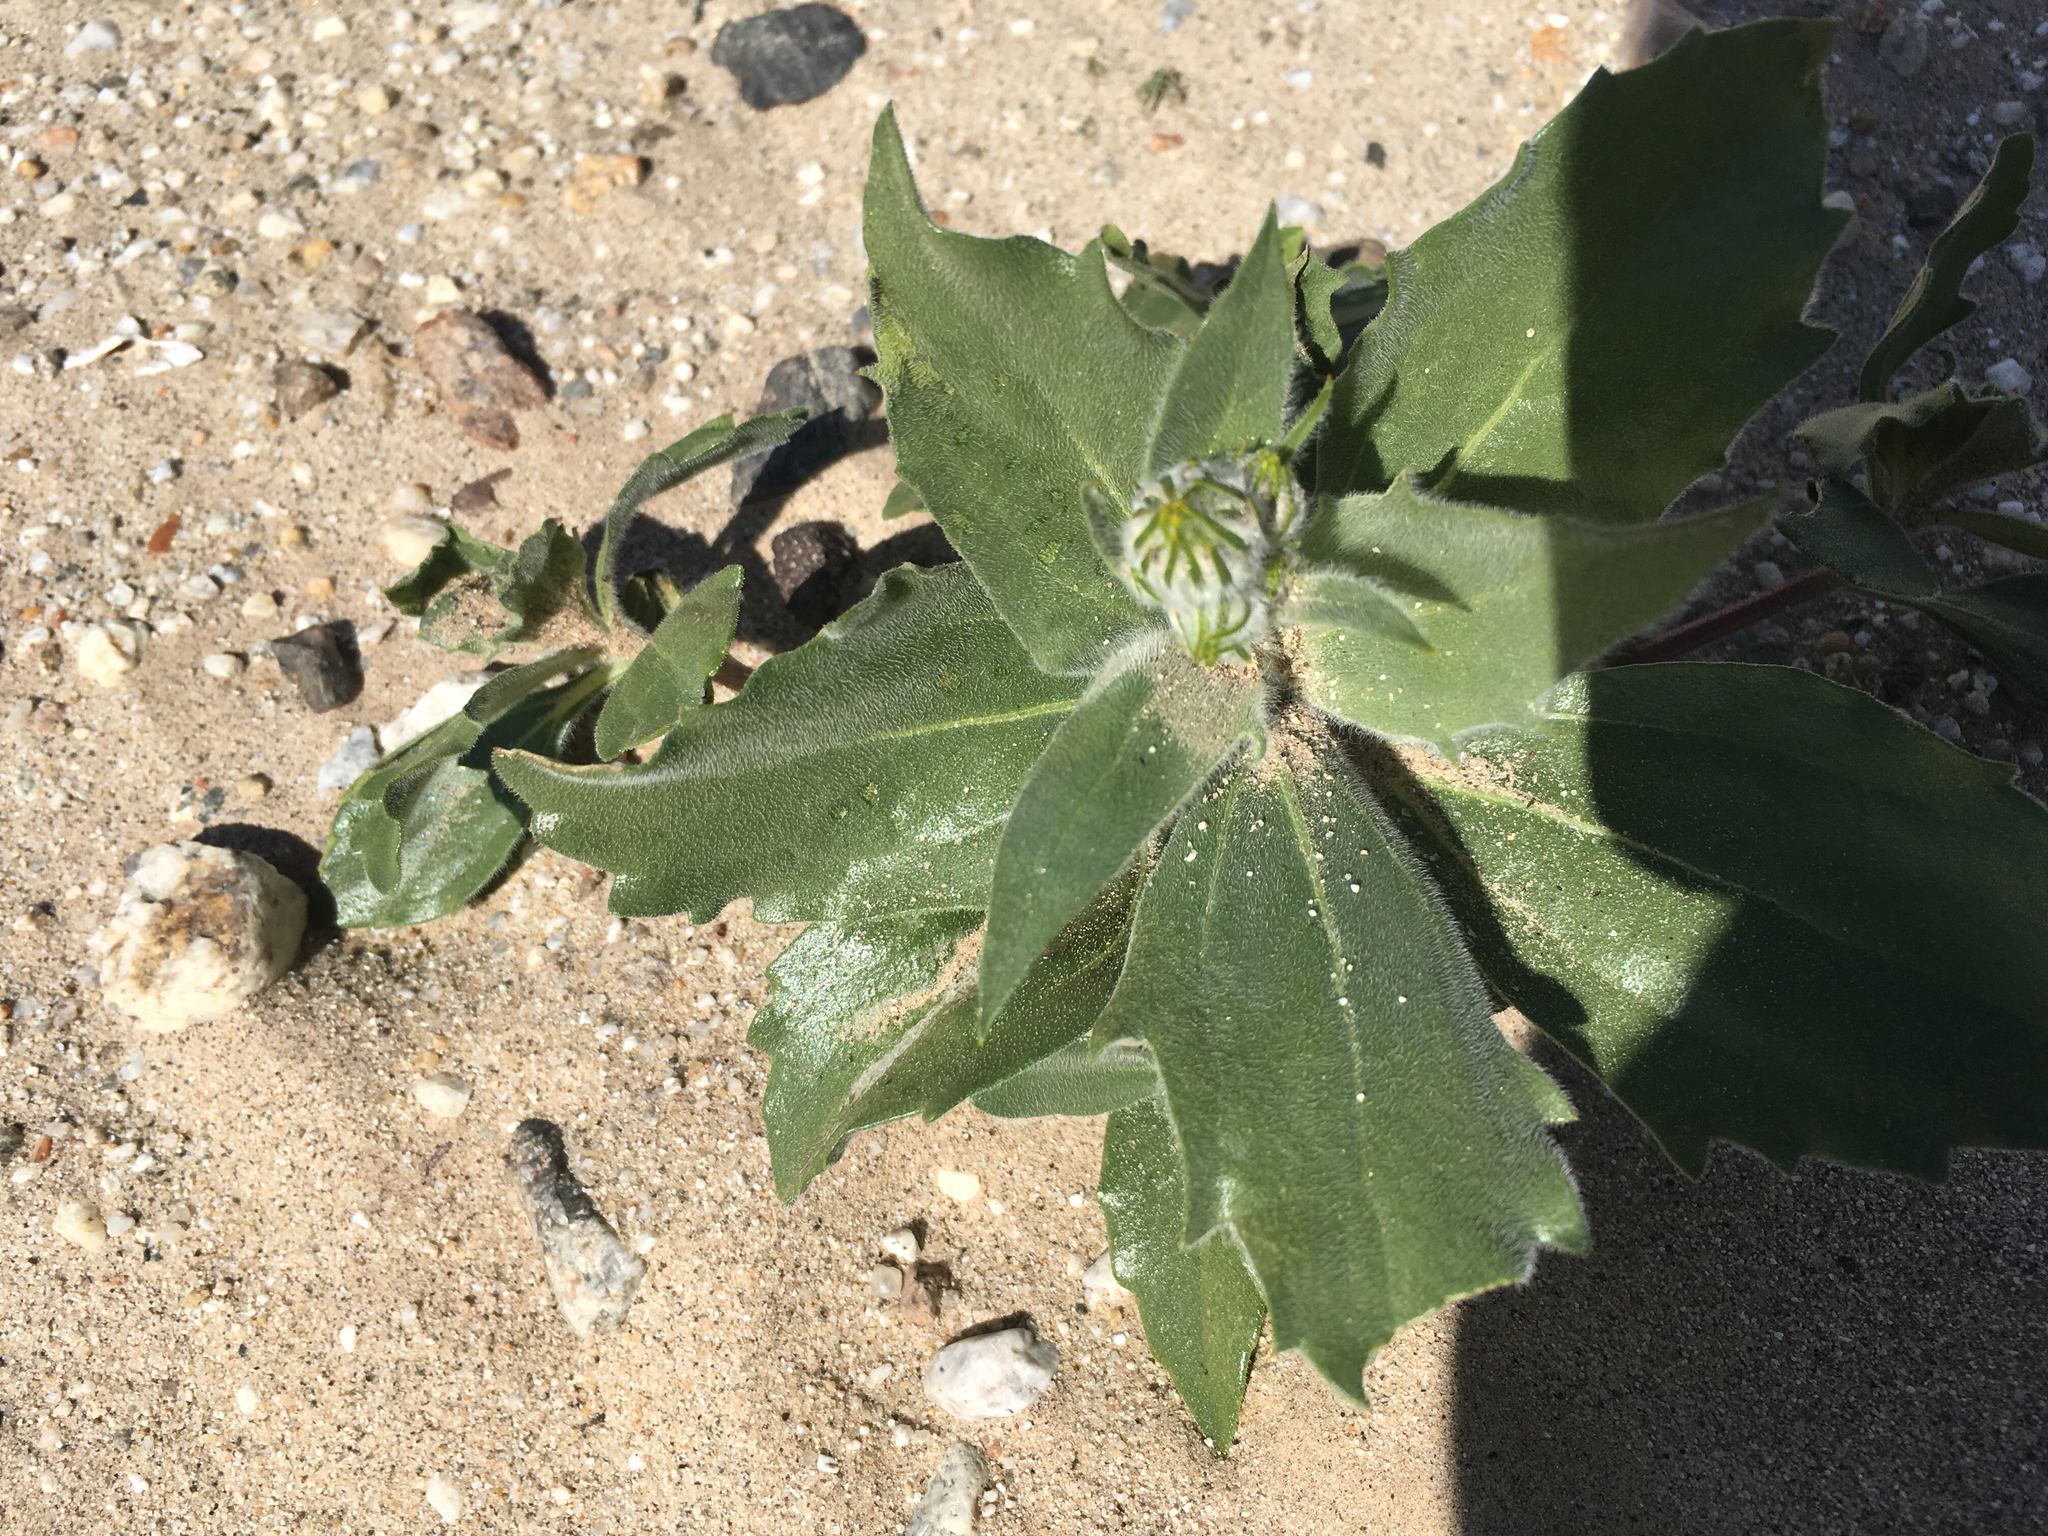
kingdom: Plantae
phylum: Tracheophyta
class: Magnoliopsida
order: Asterales
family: Asteraceae
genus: Geraea
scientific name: Geraea canescens
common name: Desert-gold
